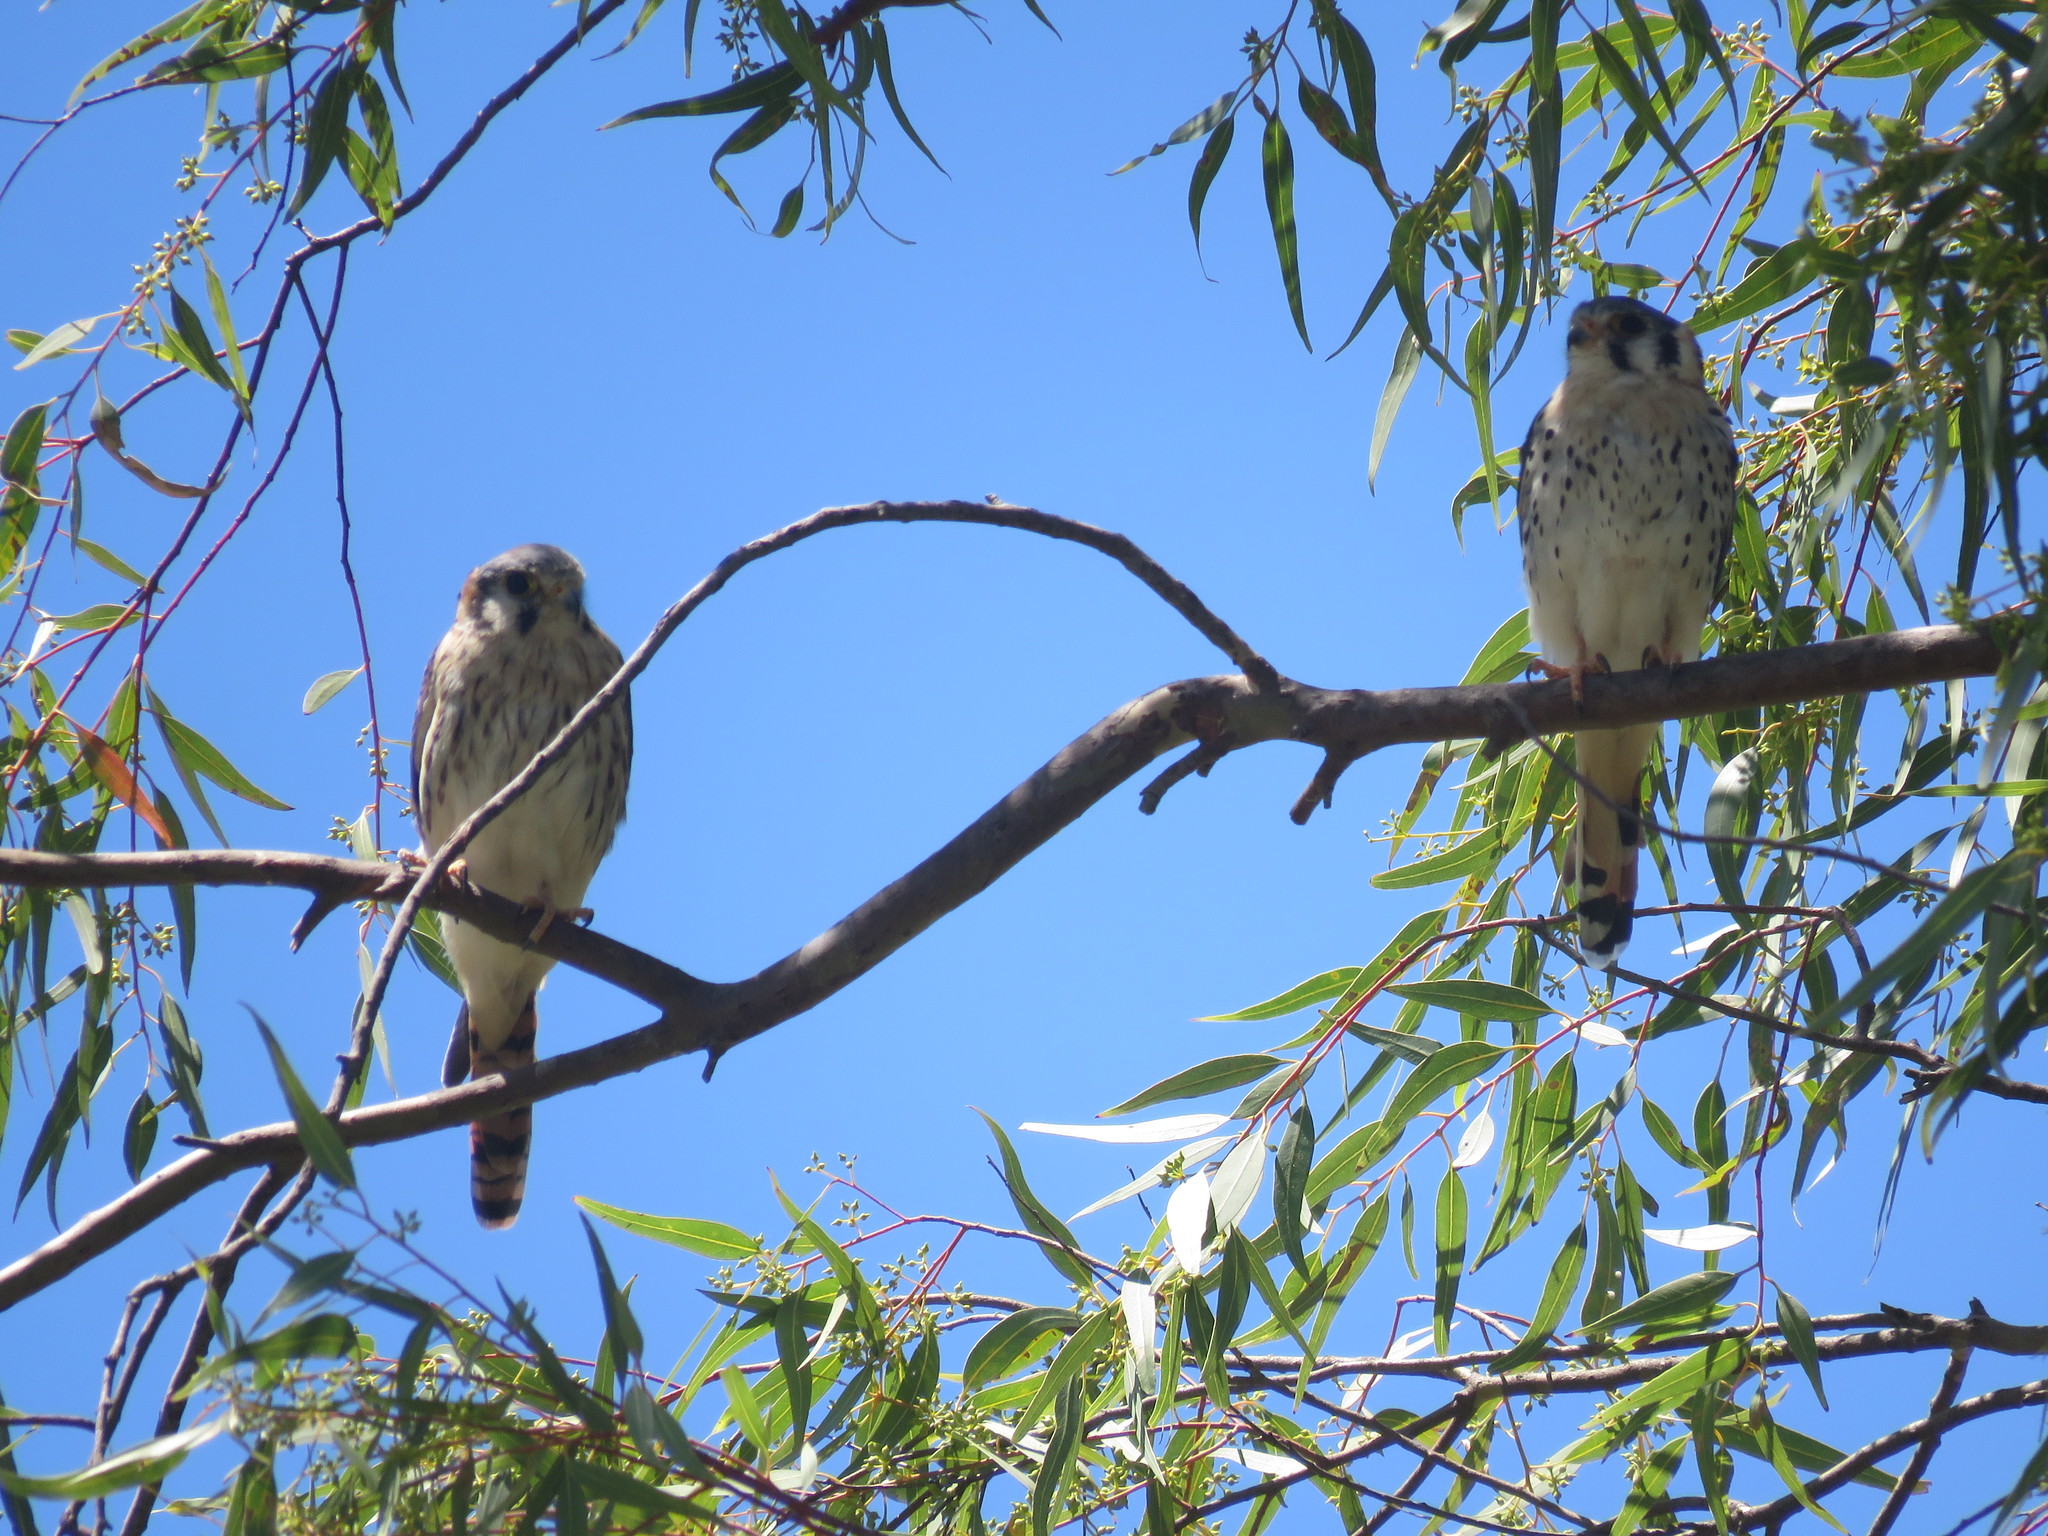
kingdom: Animalia
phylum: Chordata
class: Aves
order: Falconiformes
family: Falconidae
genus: Falco
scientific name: Falco sparverius
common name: American kestrel
